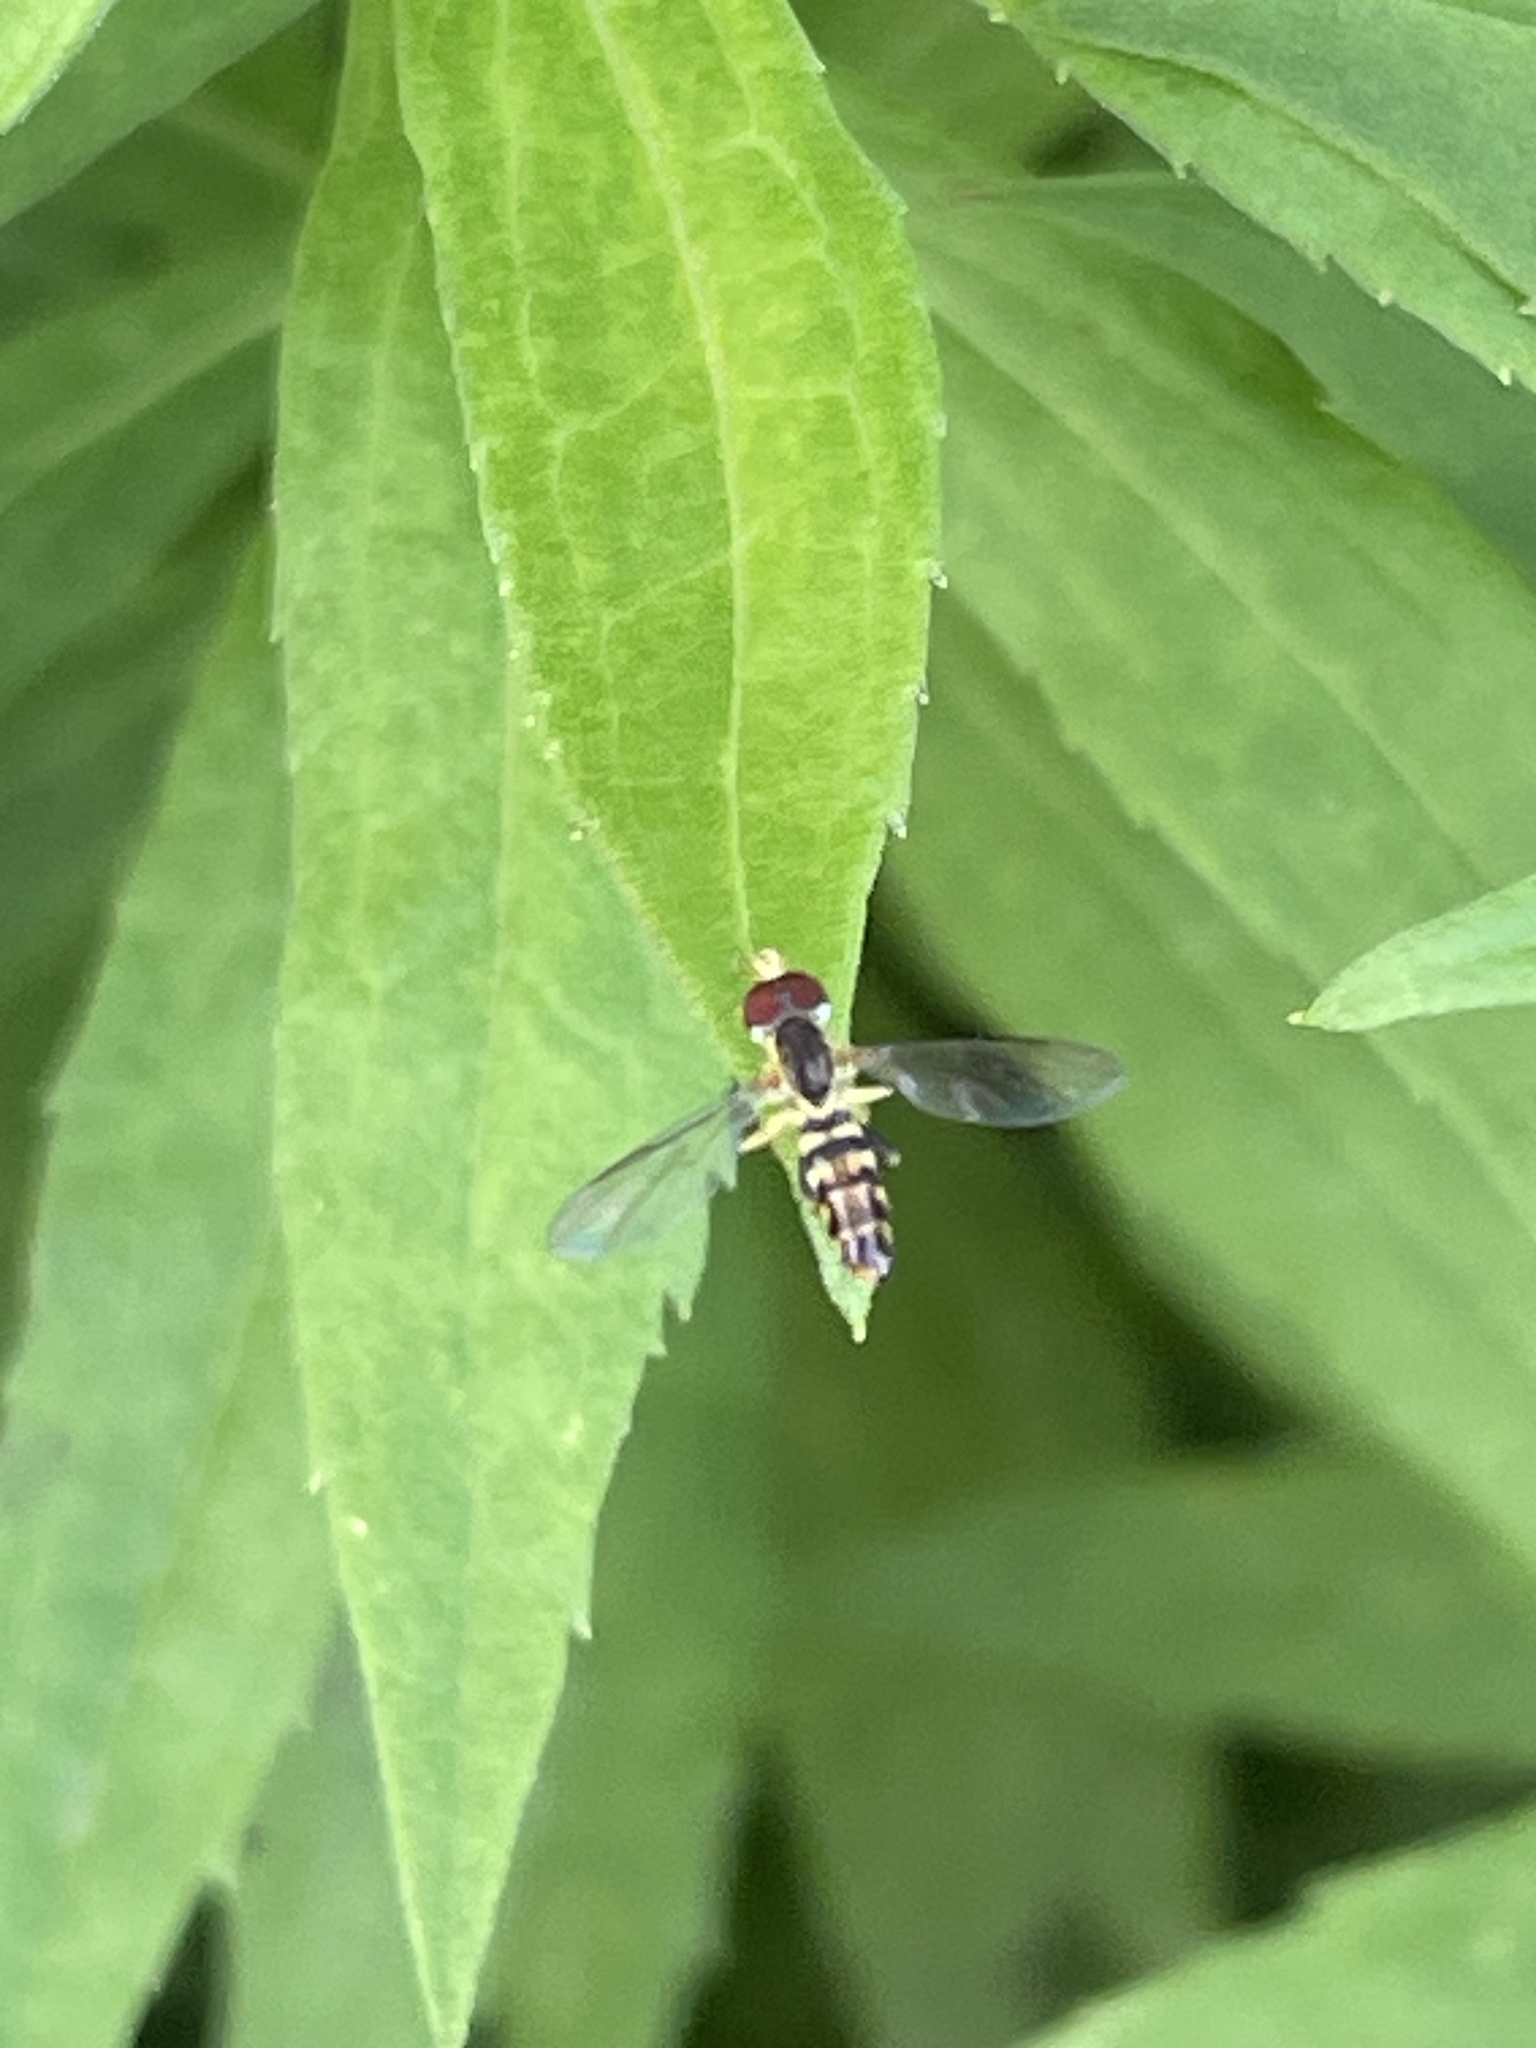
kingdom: Animalia
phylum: Arthropoda
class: Insecta
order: Diptera
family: Syrphidae
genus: Toxomerus
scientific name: Toxomerus geminatus
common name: Eastern calligrapher
